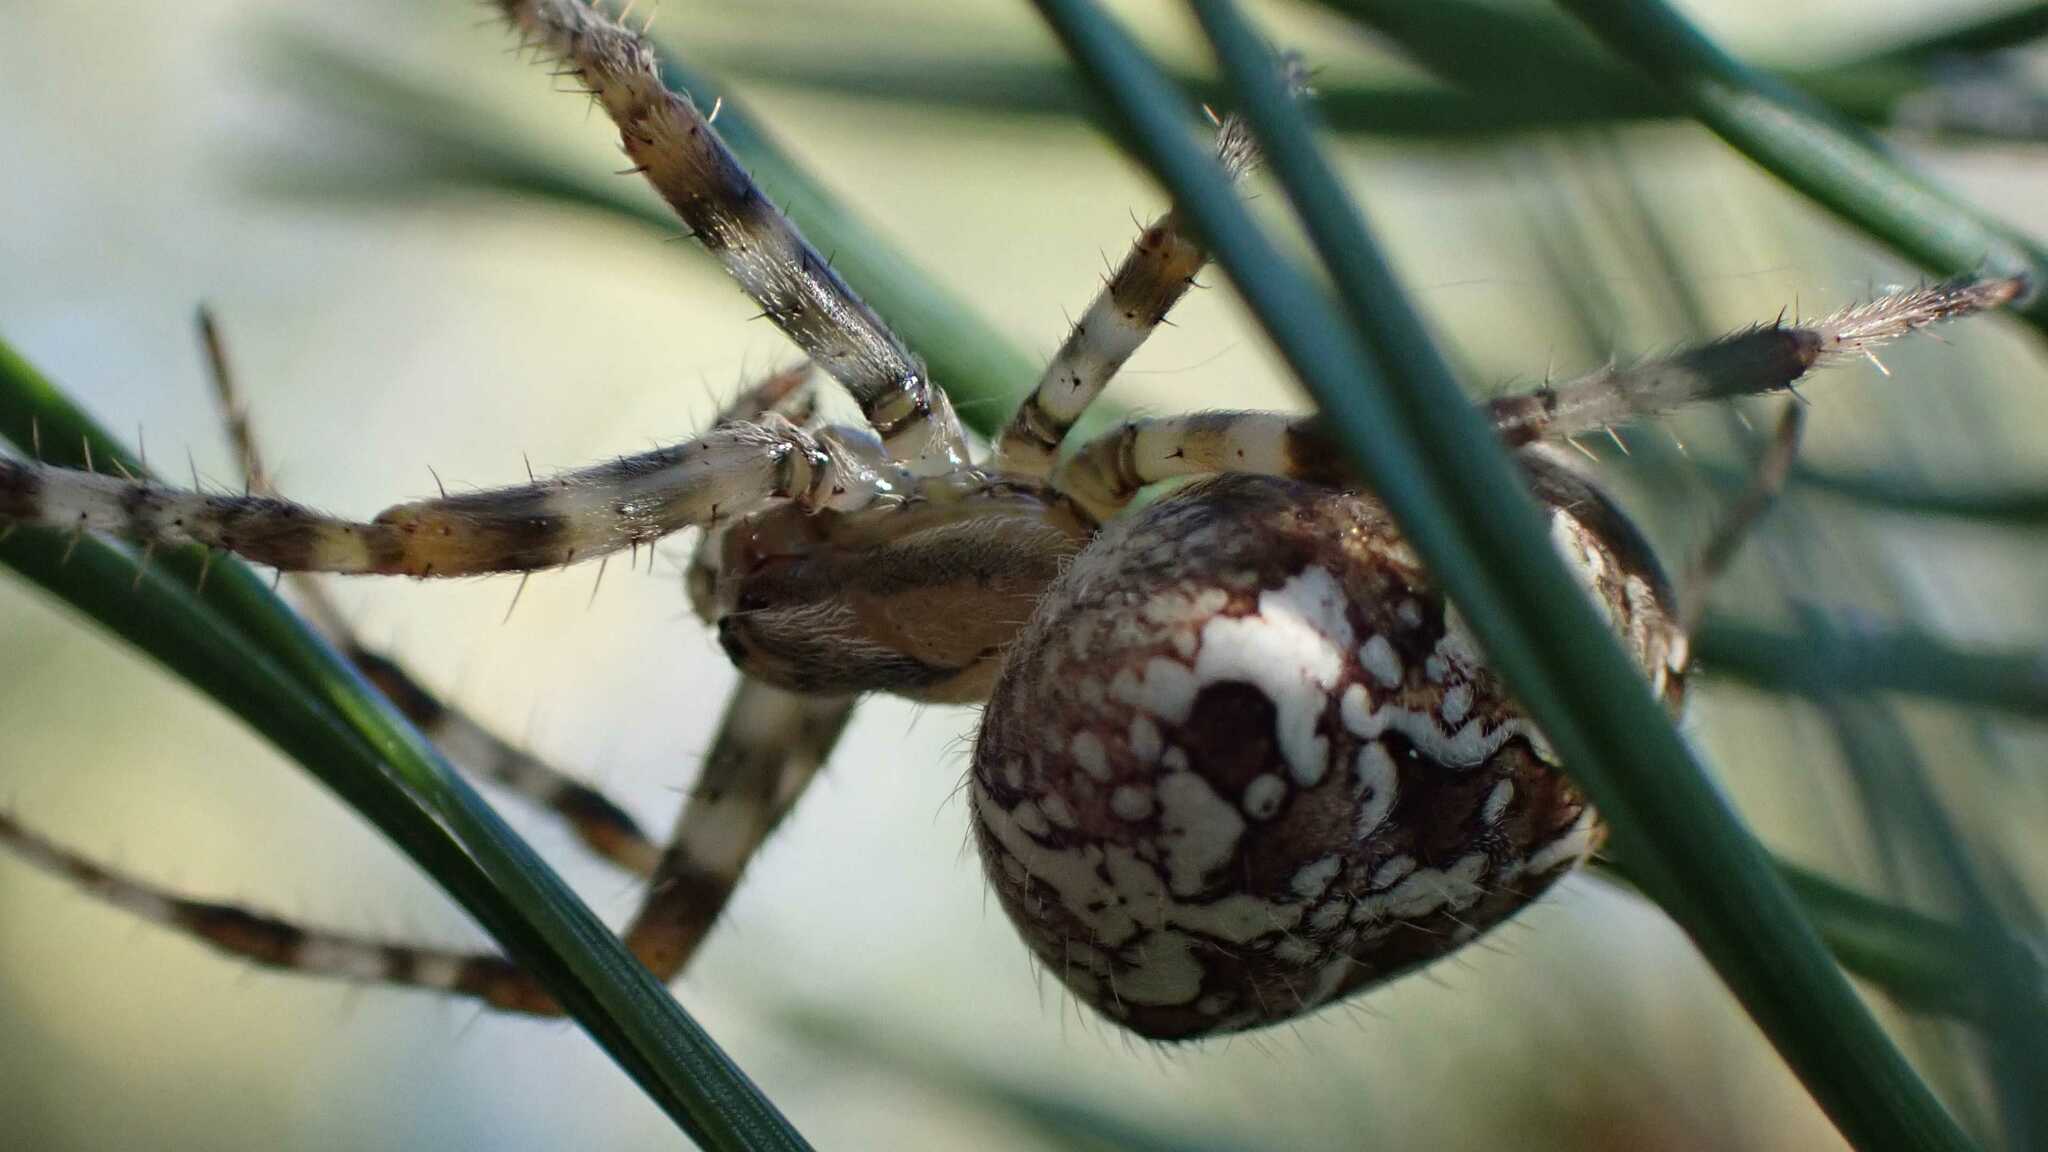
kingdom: Animalia
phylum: Arthropoda
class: Arachnida
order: Araneae
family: Araneidae
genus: Araneus
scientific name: Araneus diadematus
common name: Cross orbweaver
